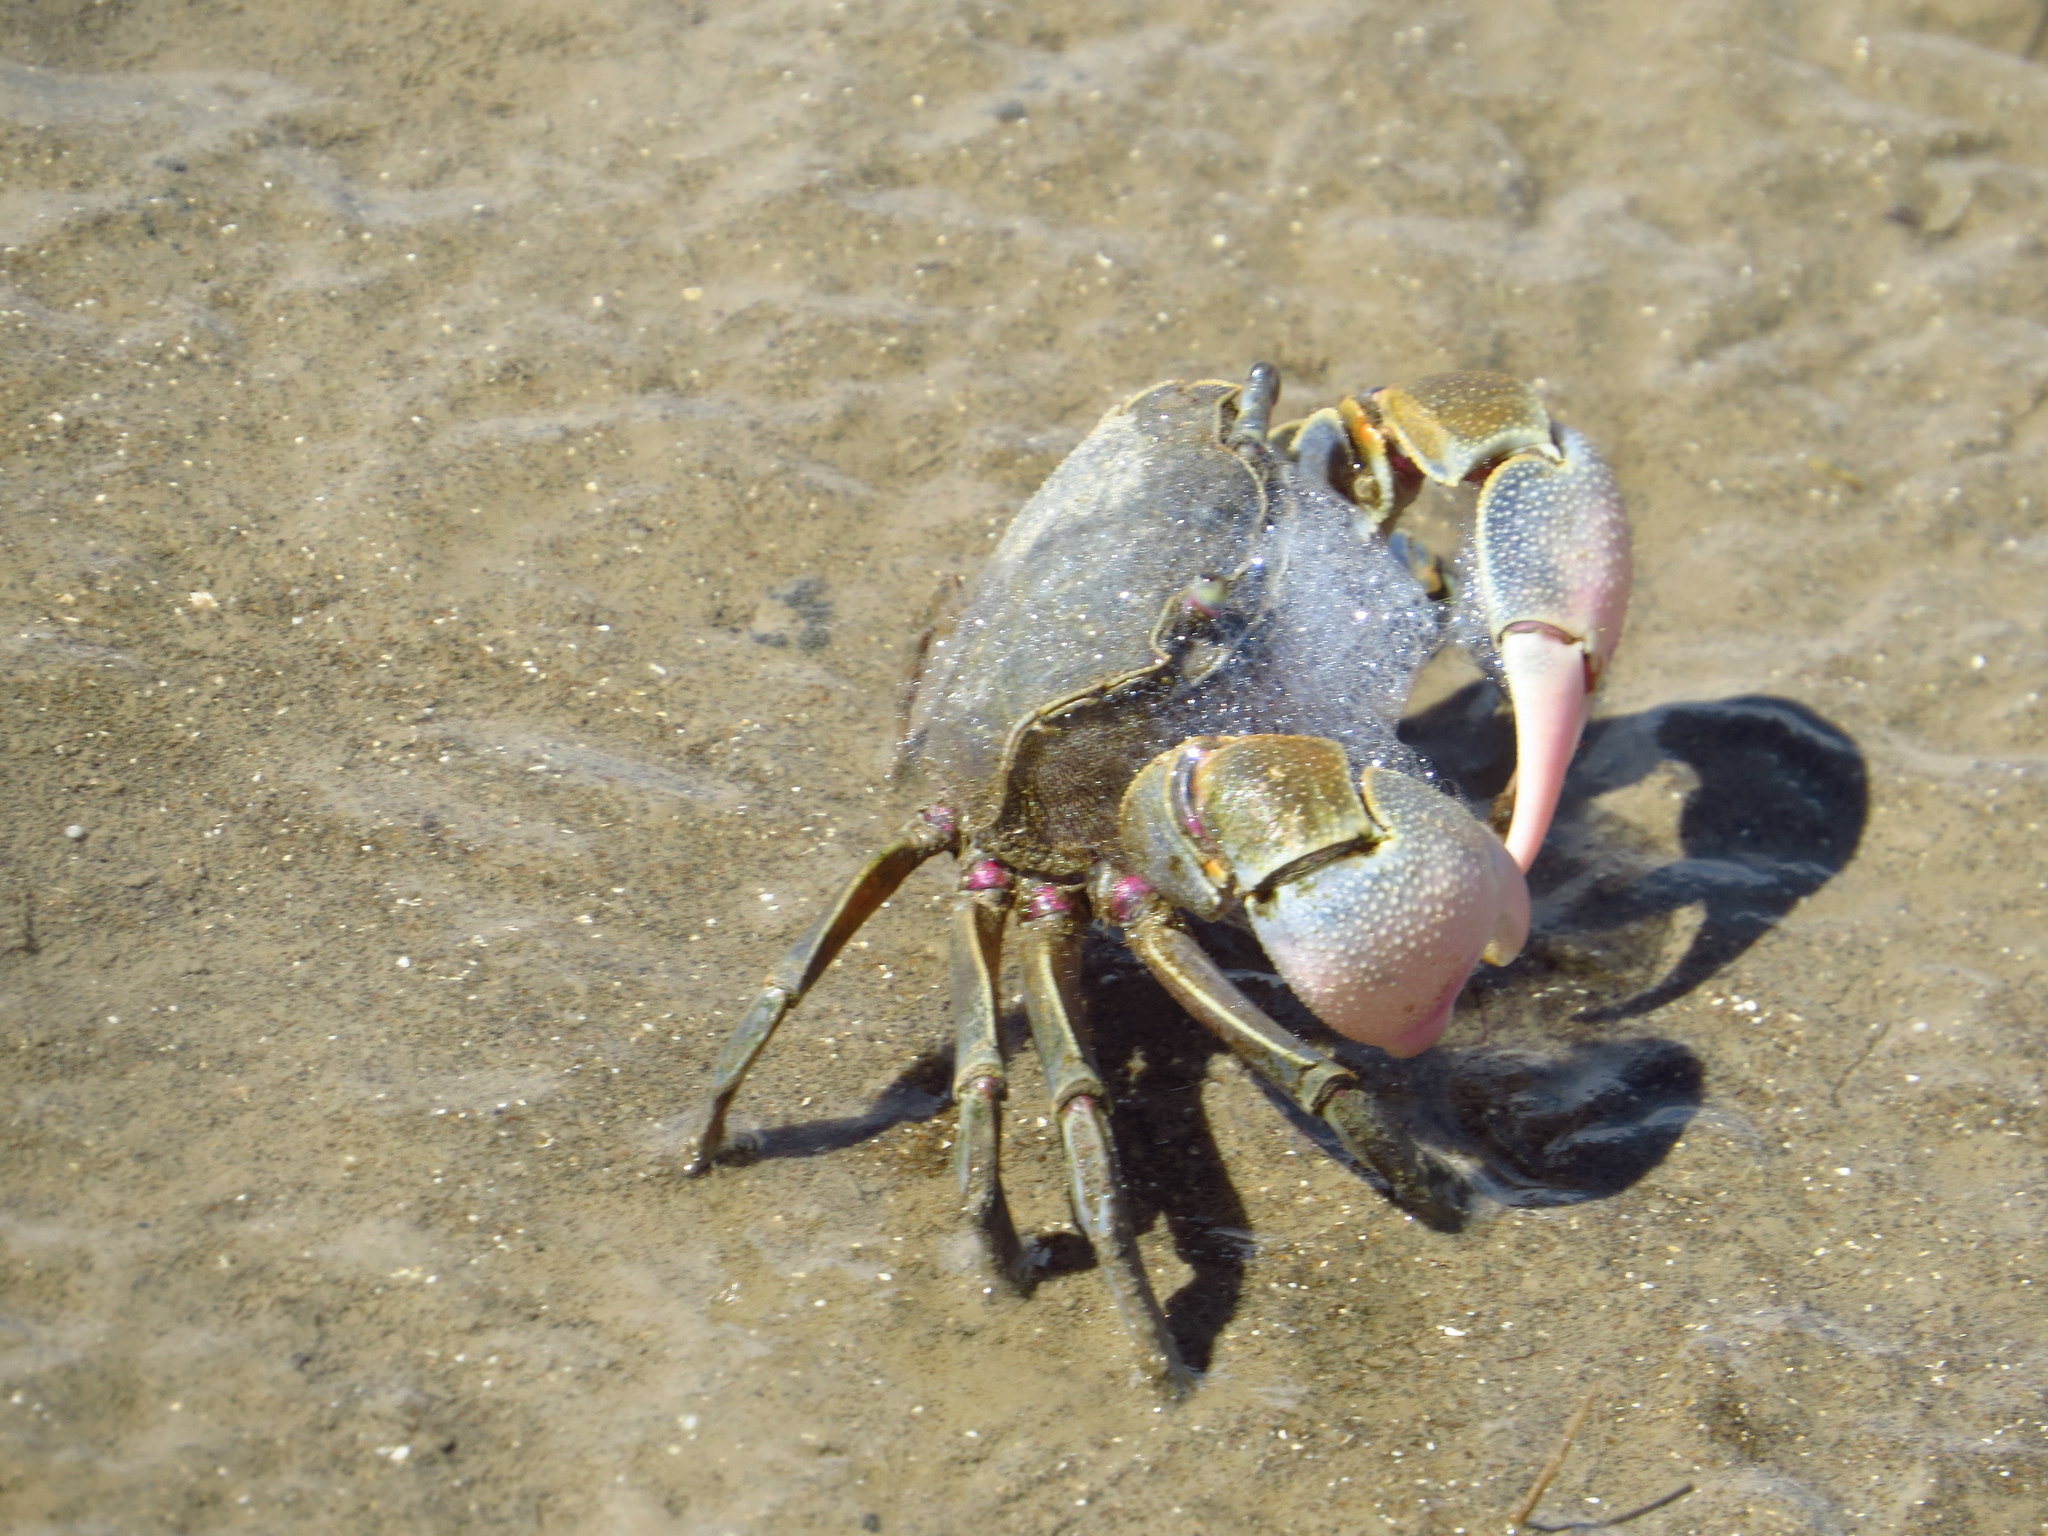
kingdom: Animalia
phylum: Arthropoda
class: Malacostraca
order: Decapoda
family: Varunidae
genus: Neohelice
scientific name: Neohelice granulata
